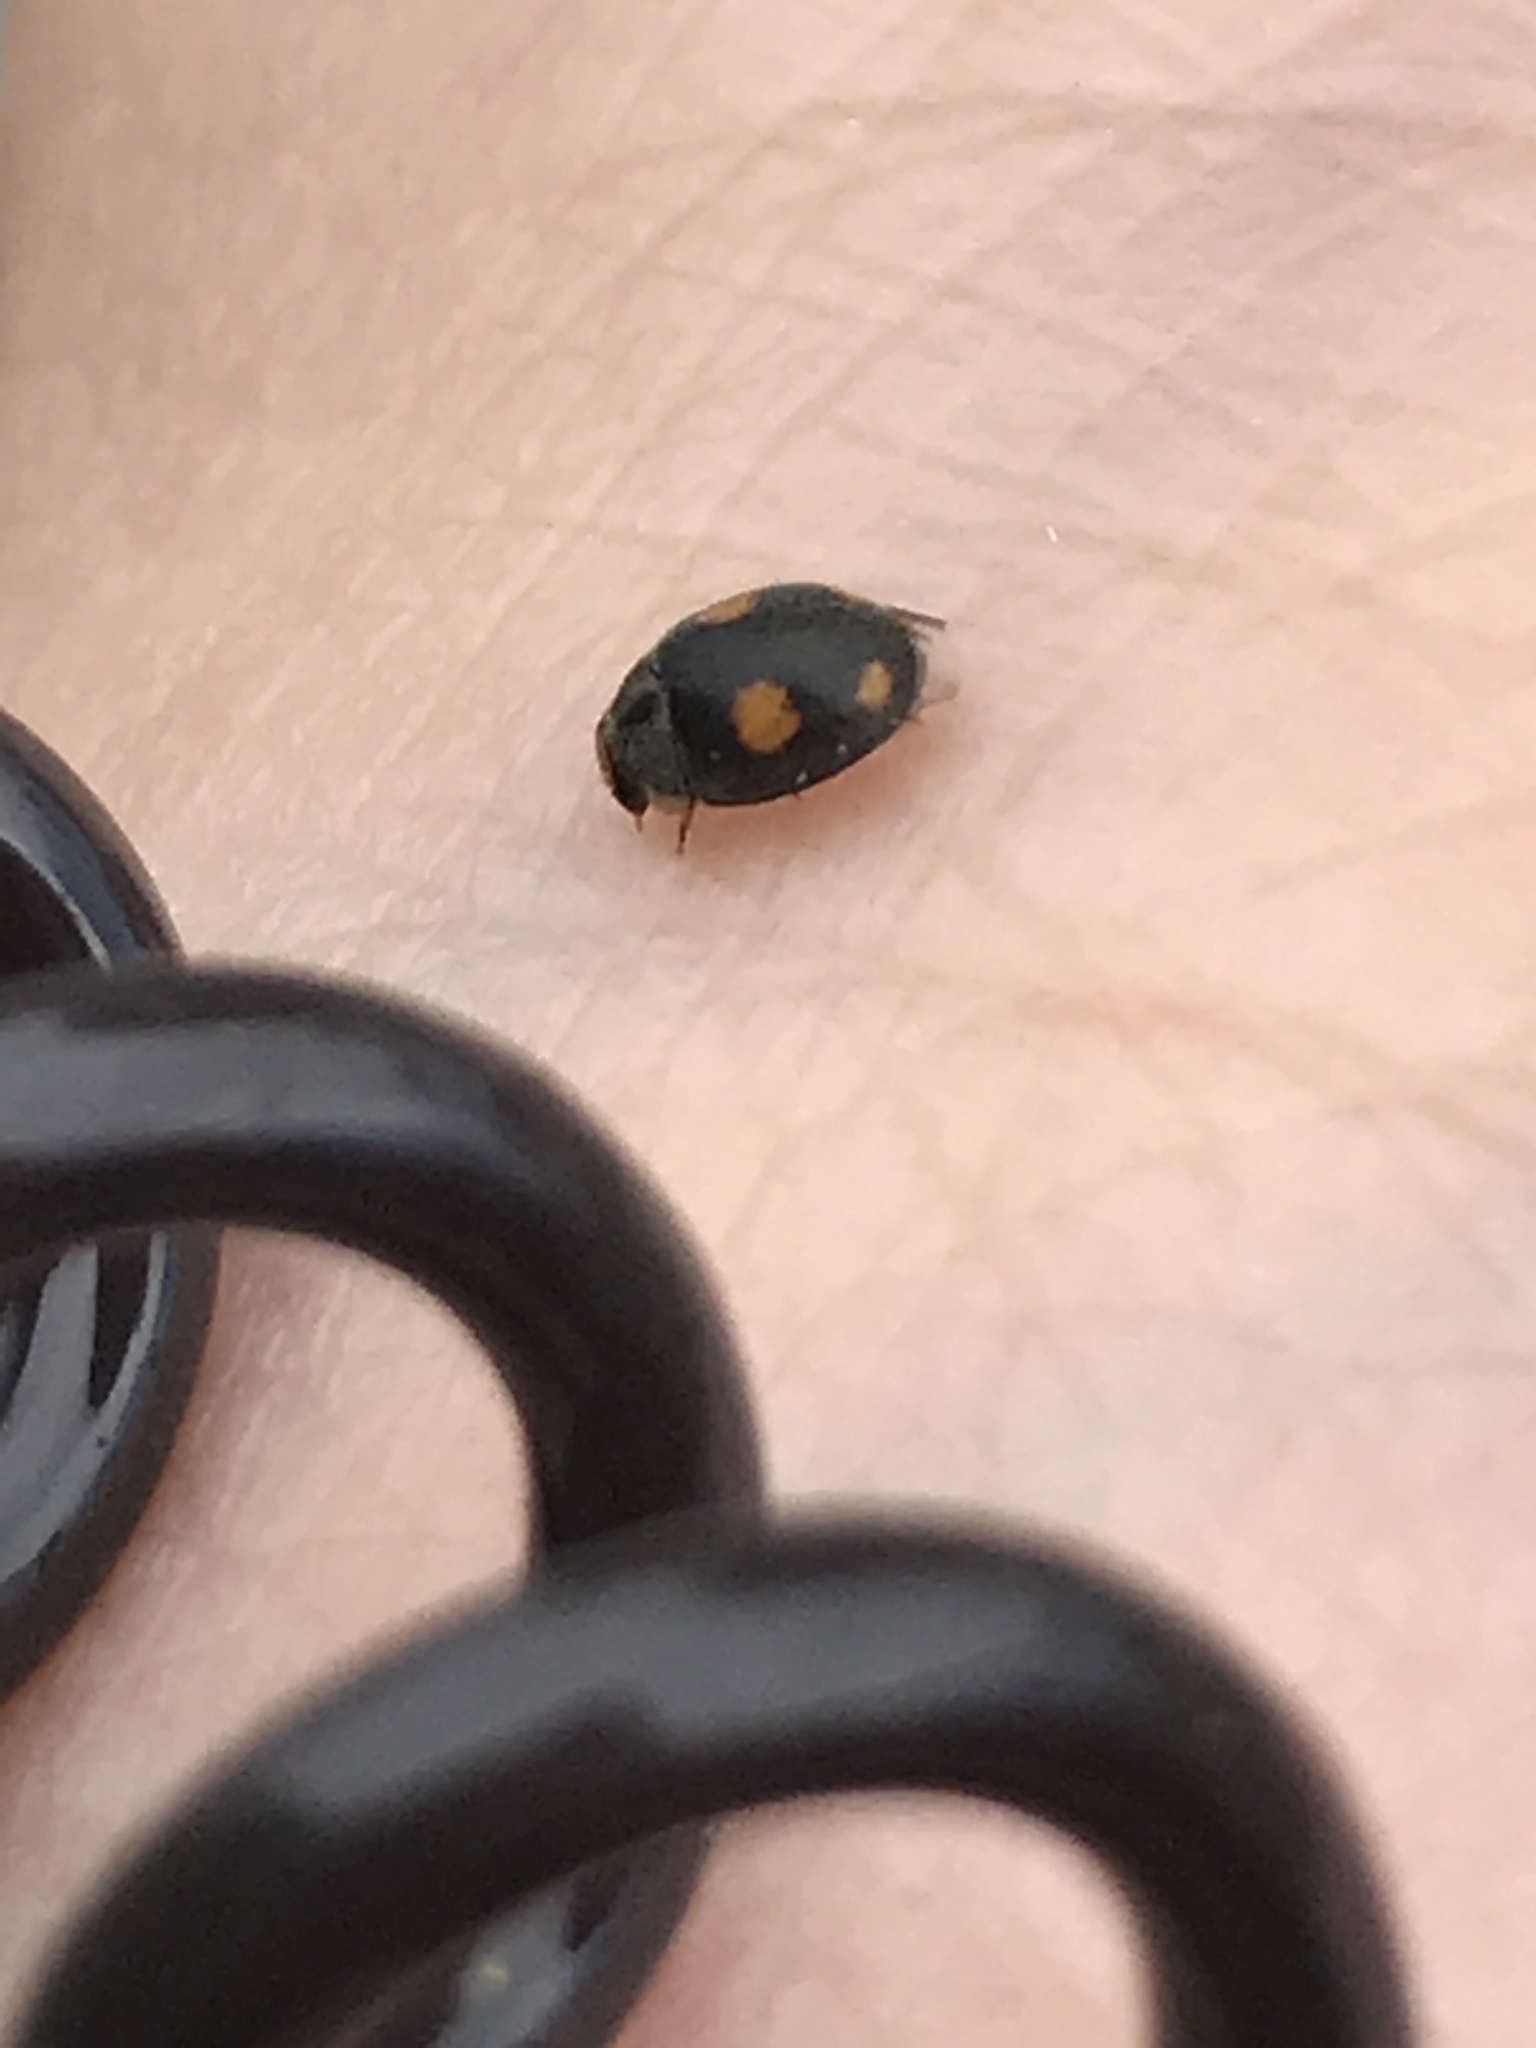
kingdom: Animalia
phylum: Arthropoda
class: Insecta
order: Coleoptera
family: Coccinellidae
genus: Platynaspis
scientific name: Platynaspis luteorubra
